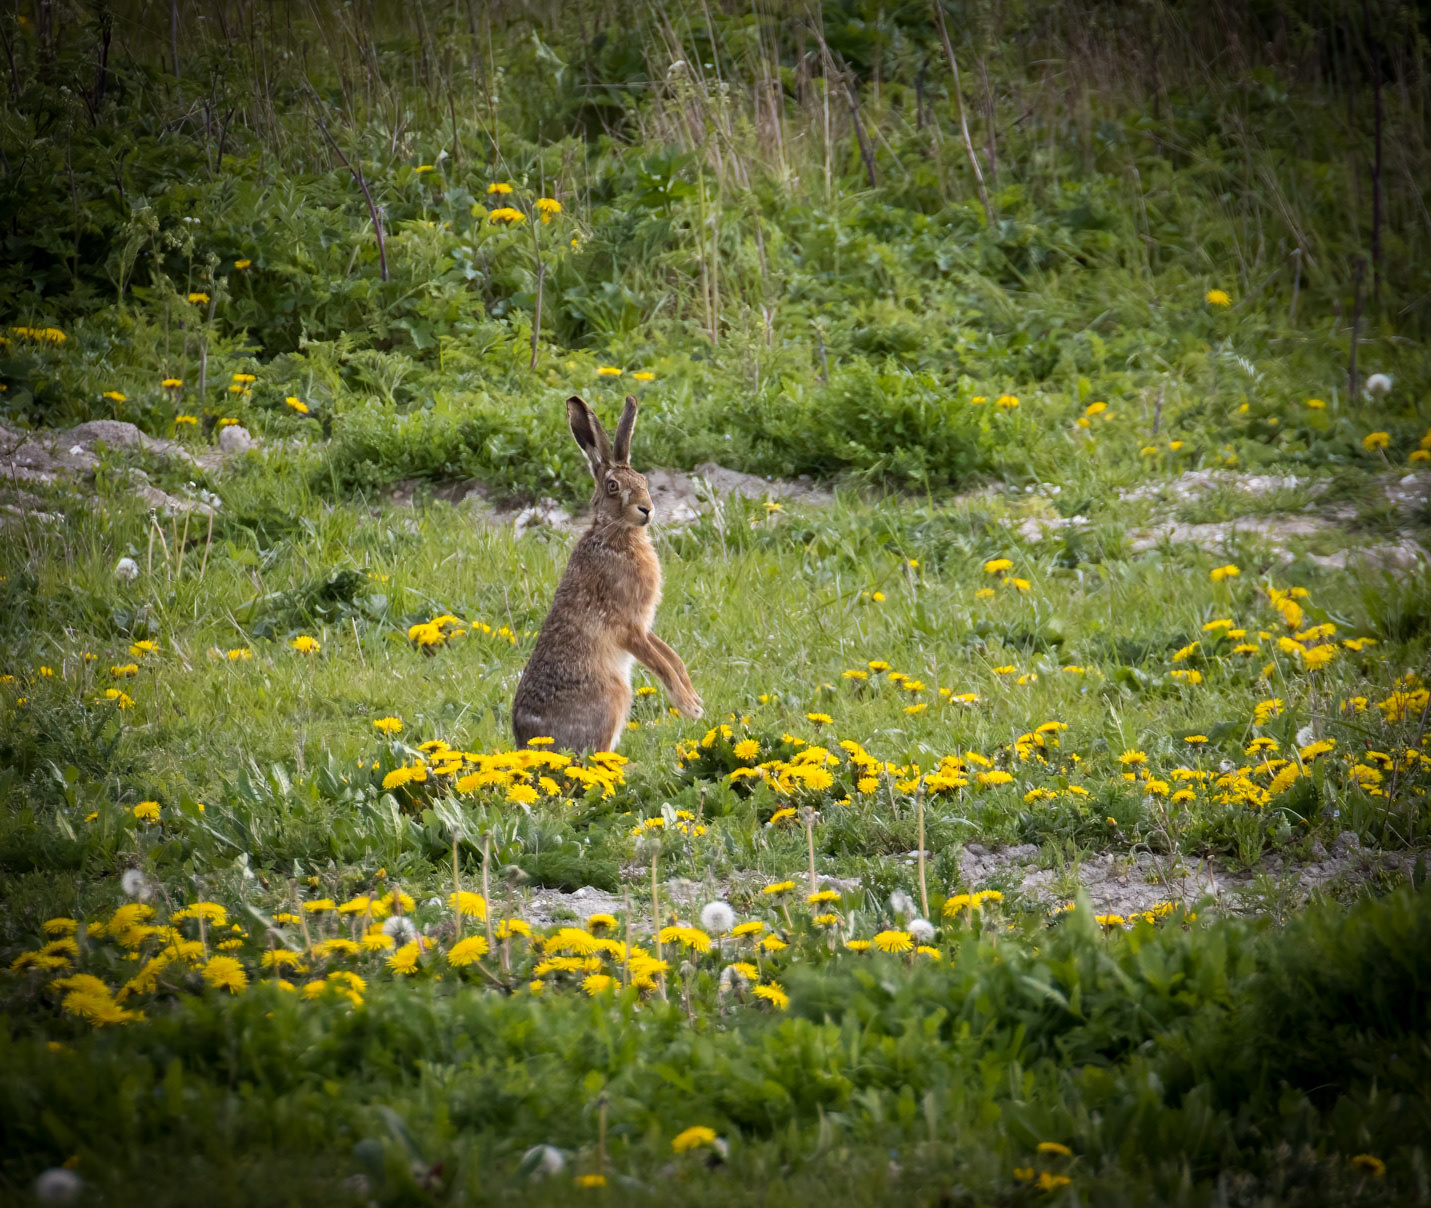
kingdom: Animalia
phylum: Chordata
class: Mammalia
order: Lagomorpha
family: Leporidae
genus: Lepus
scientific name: Lepus europaeus
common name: European hare
